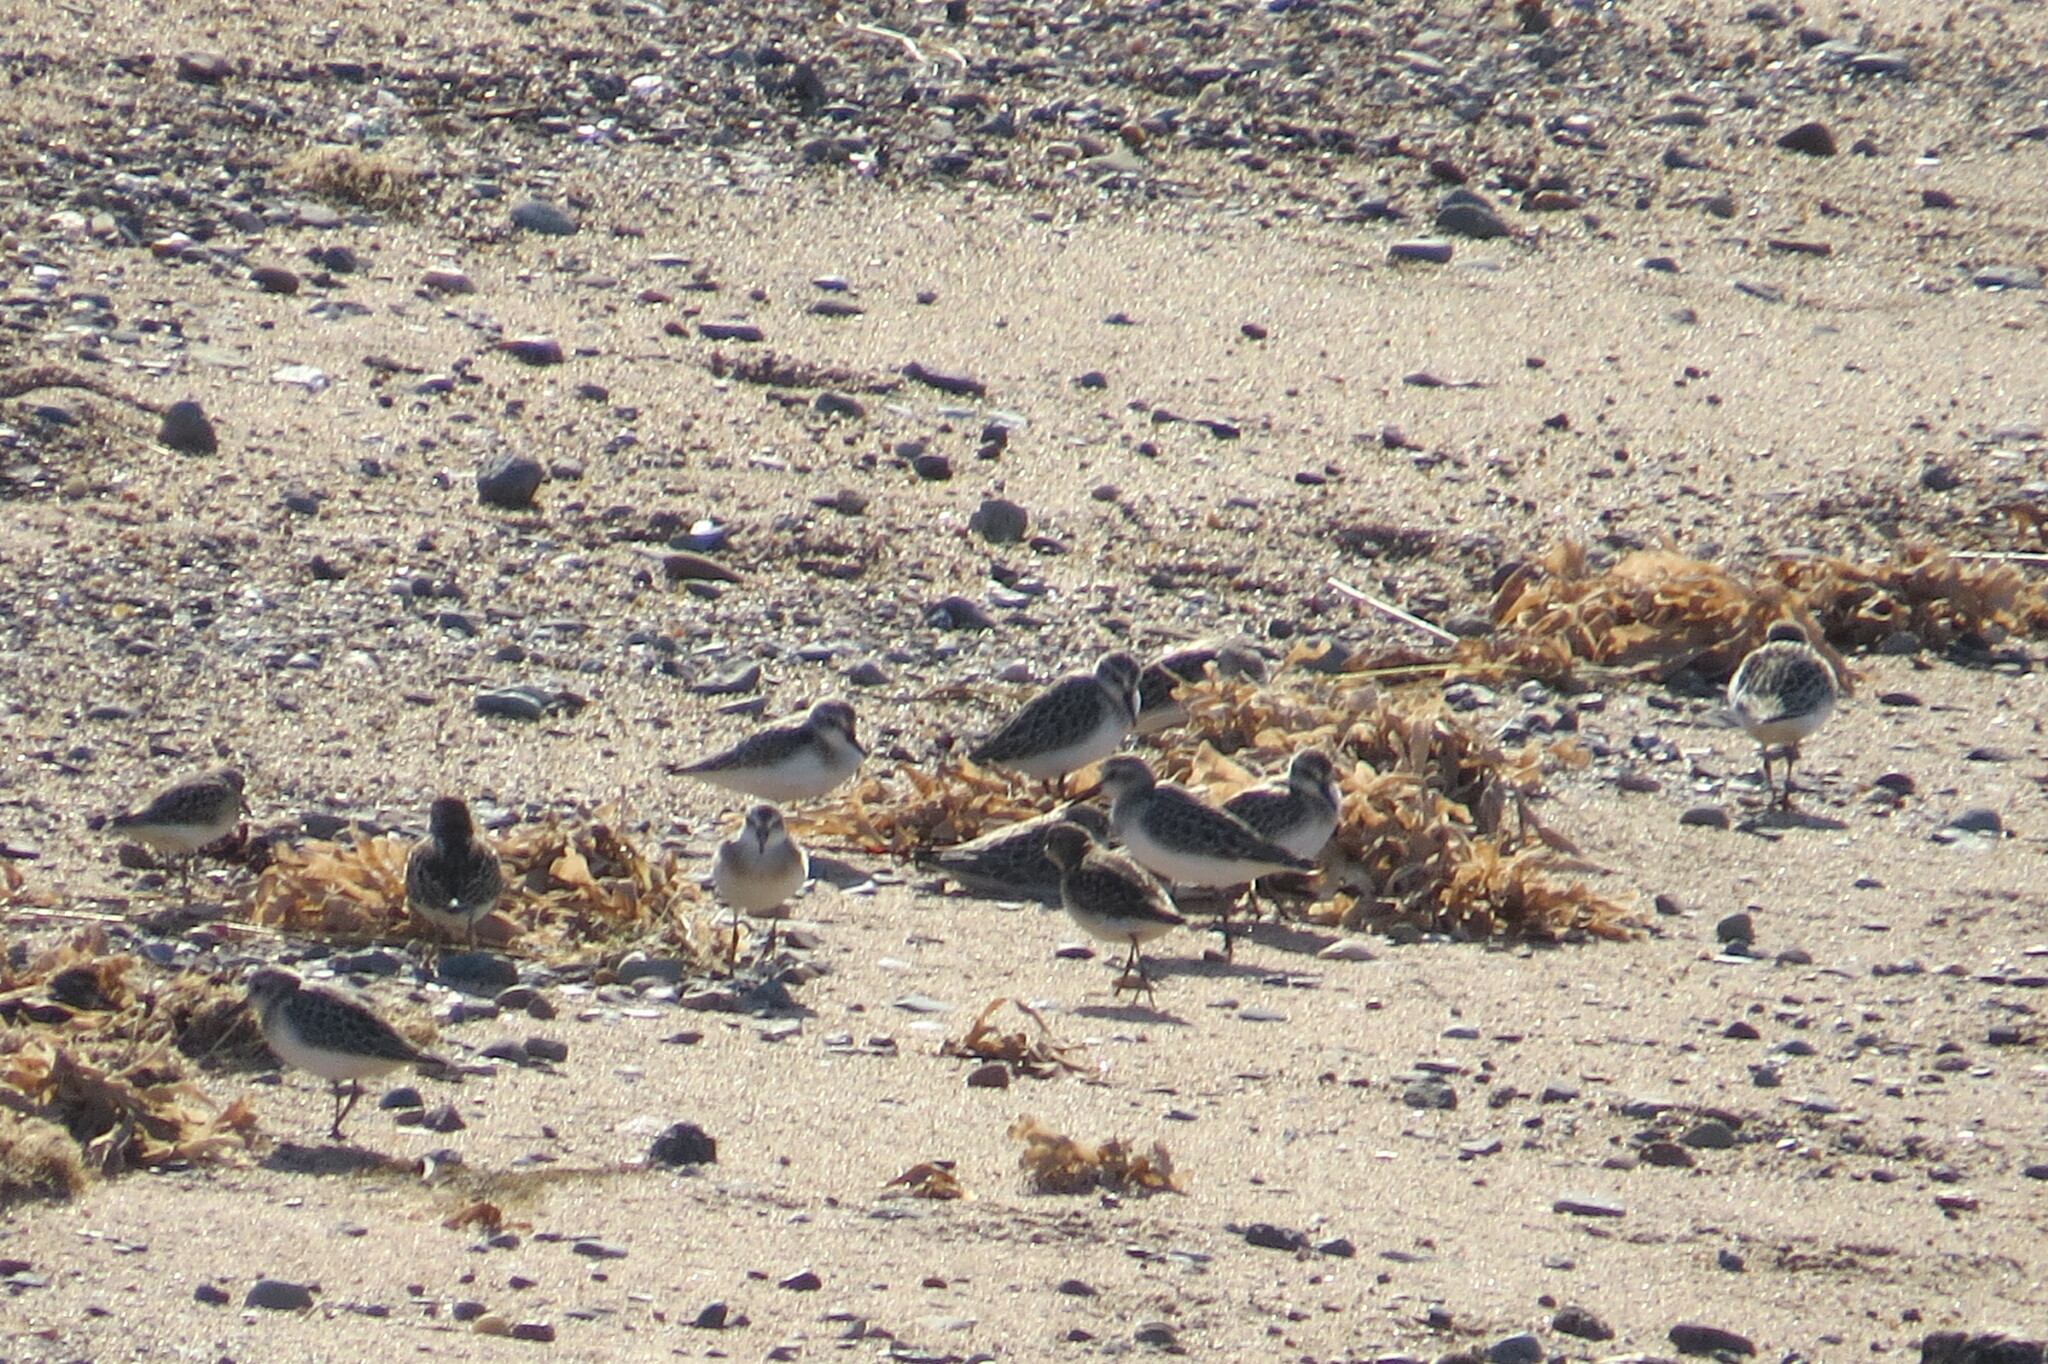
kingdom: Animalia
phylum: Chordata
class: Aves
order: Charadriiformes
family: Scolopacidae
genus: Calidris
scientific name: Calidris alba
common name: Sanderling
